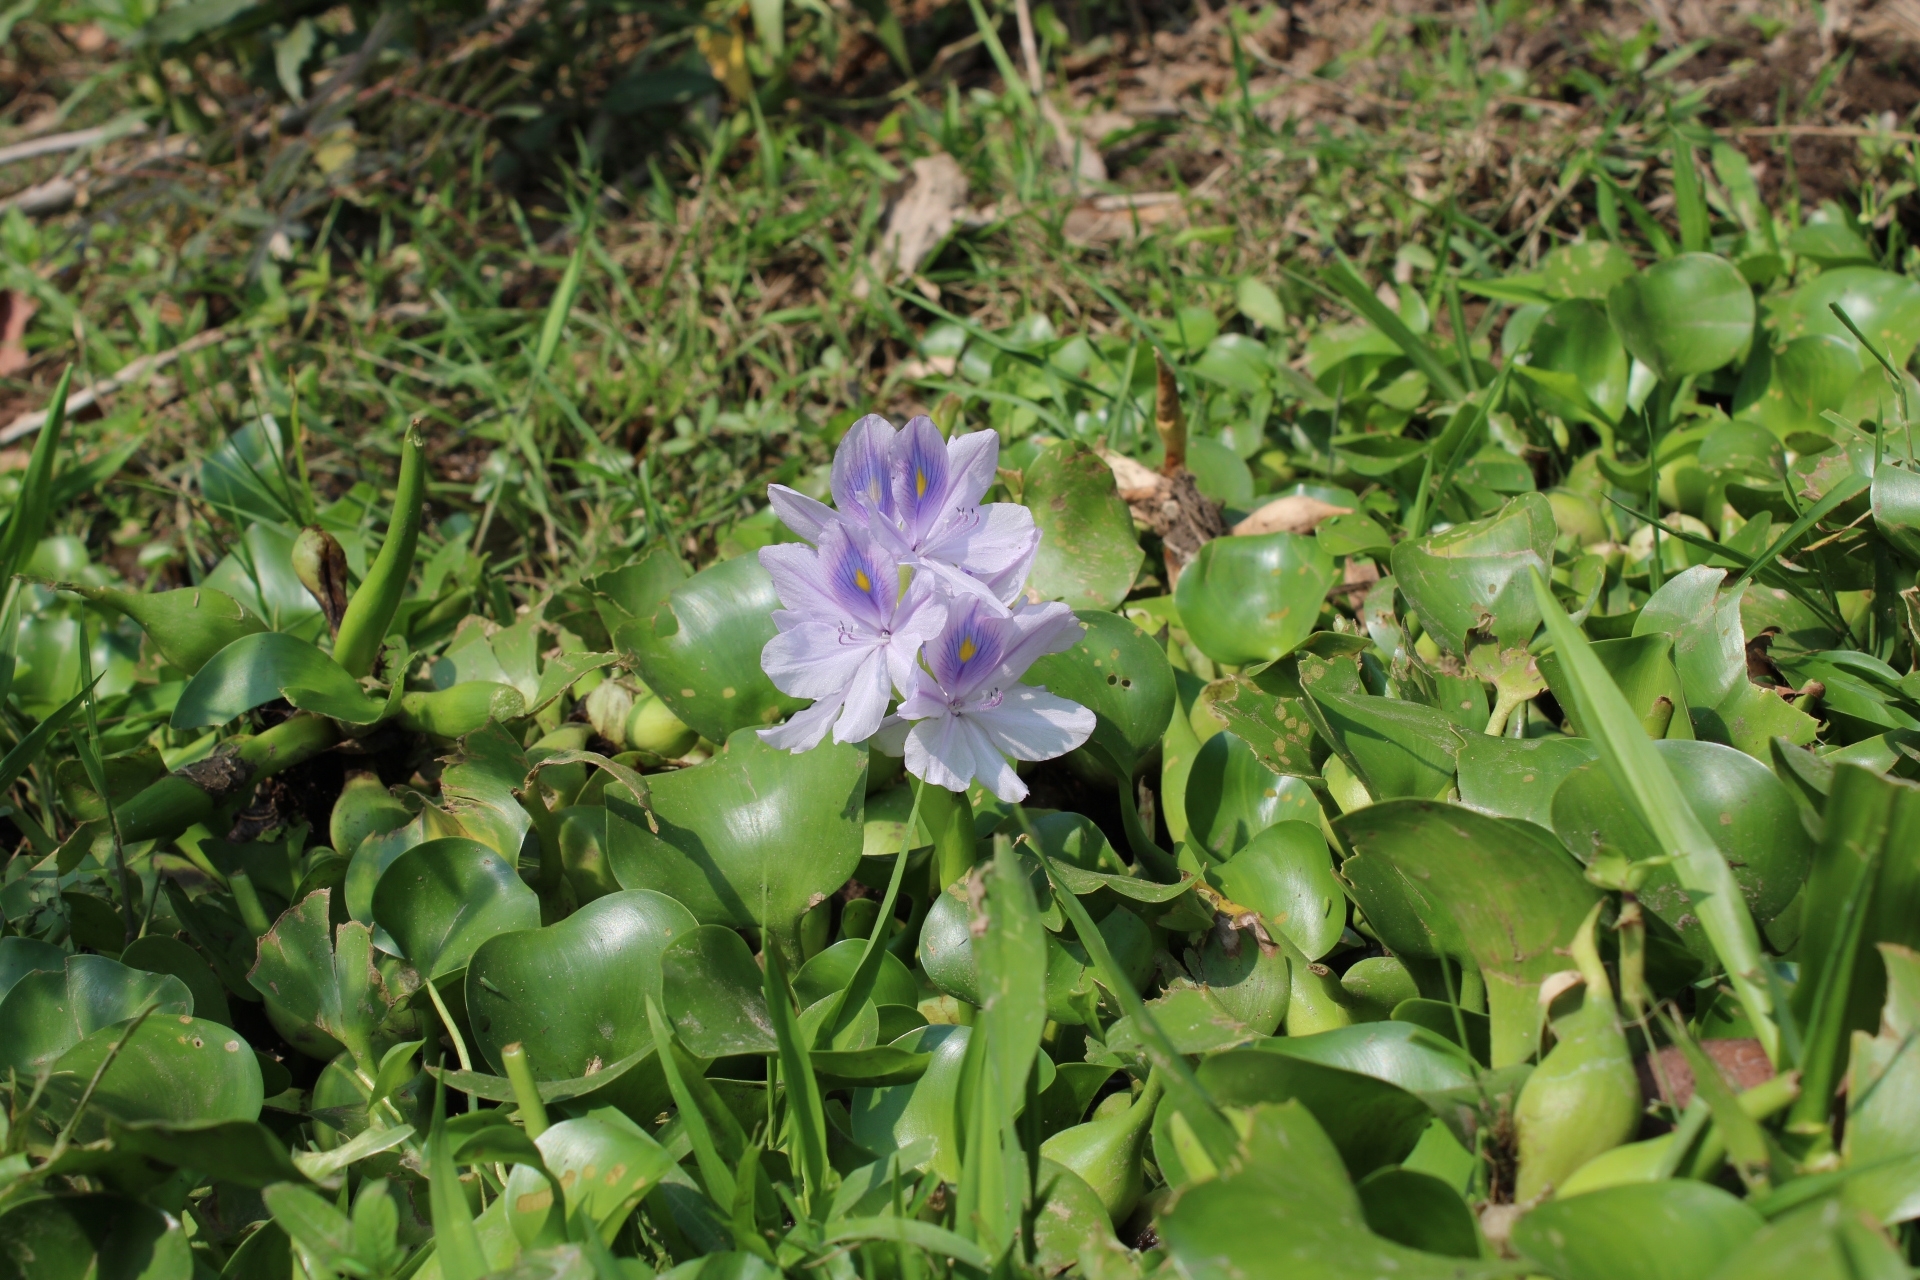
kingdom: Plantae
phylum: Tracheophyta
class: Liliopsida
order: Commelinales
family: Pontederiaceae
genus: Pontederia
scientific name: Pontederia crassipes
